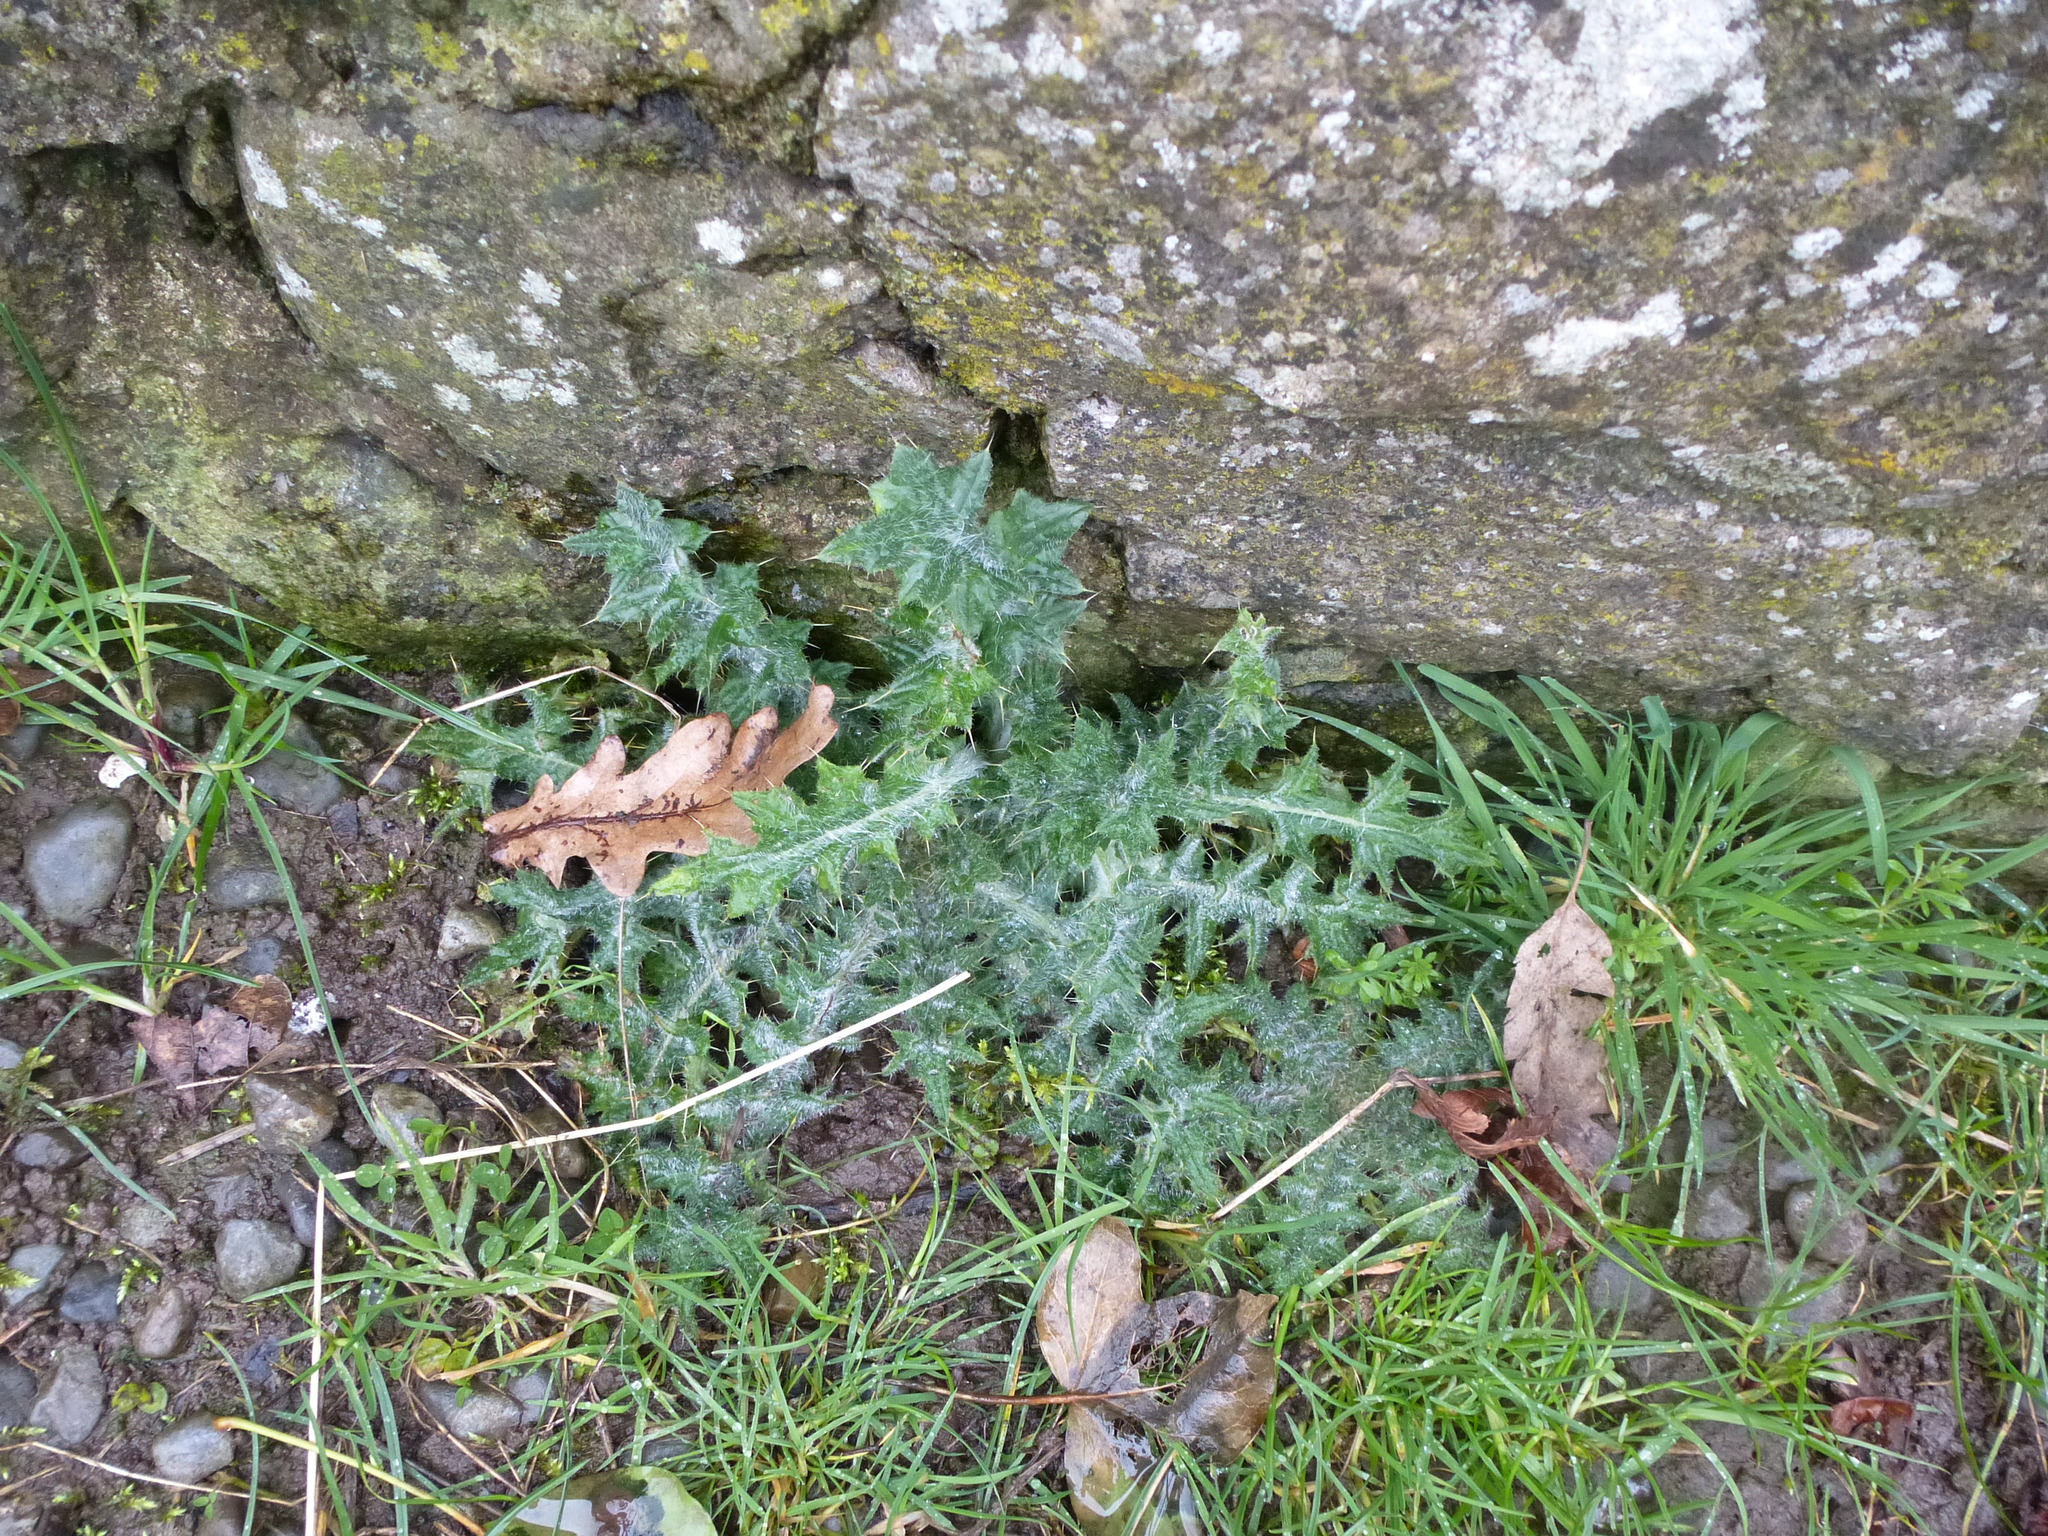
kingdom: Plantae
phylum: Tracheophyta
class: Magnoliopsida
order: Asterales
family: Asteraceae
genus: Cirsium
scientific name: Cirsium vulgare
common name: Bull thistle
